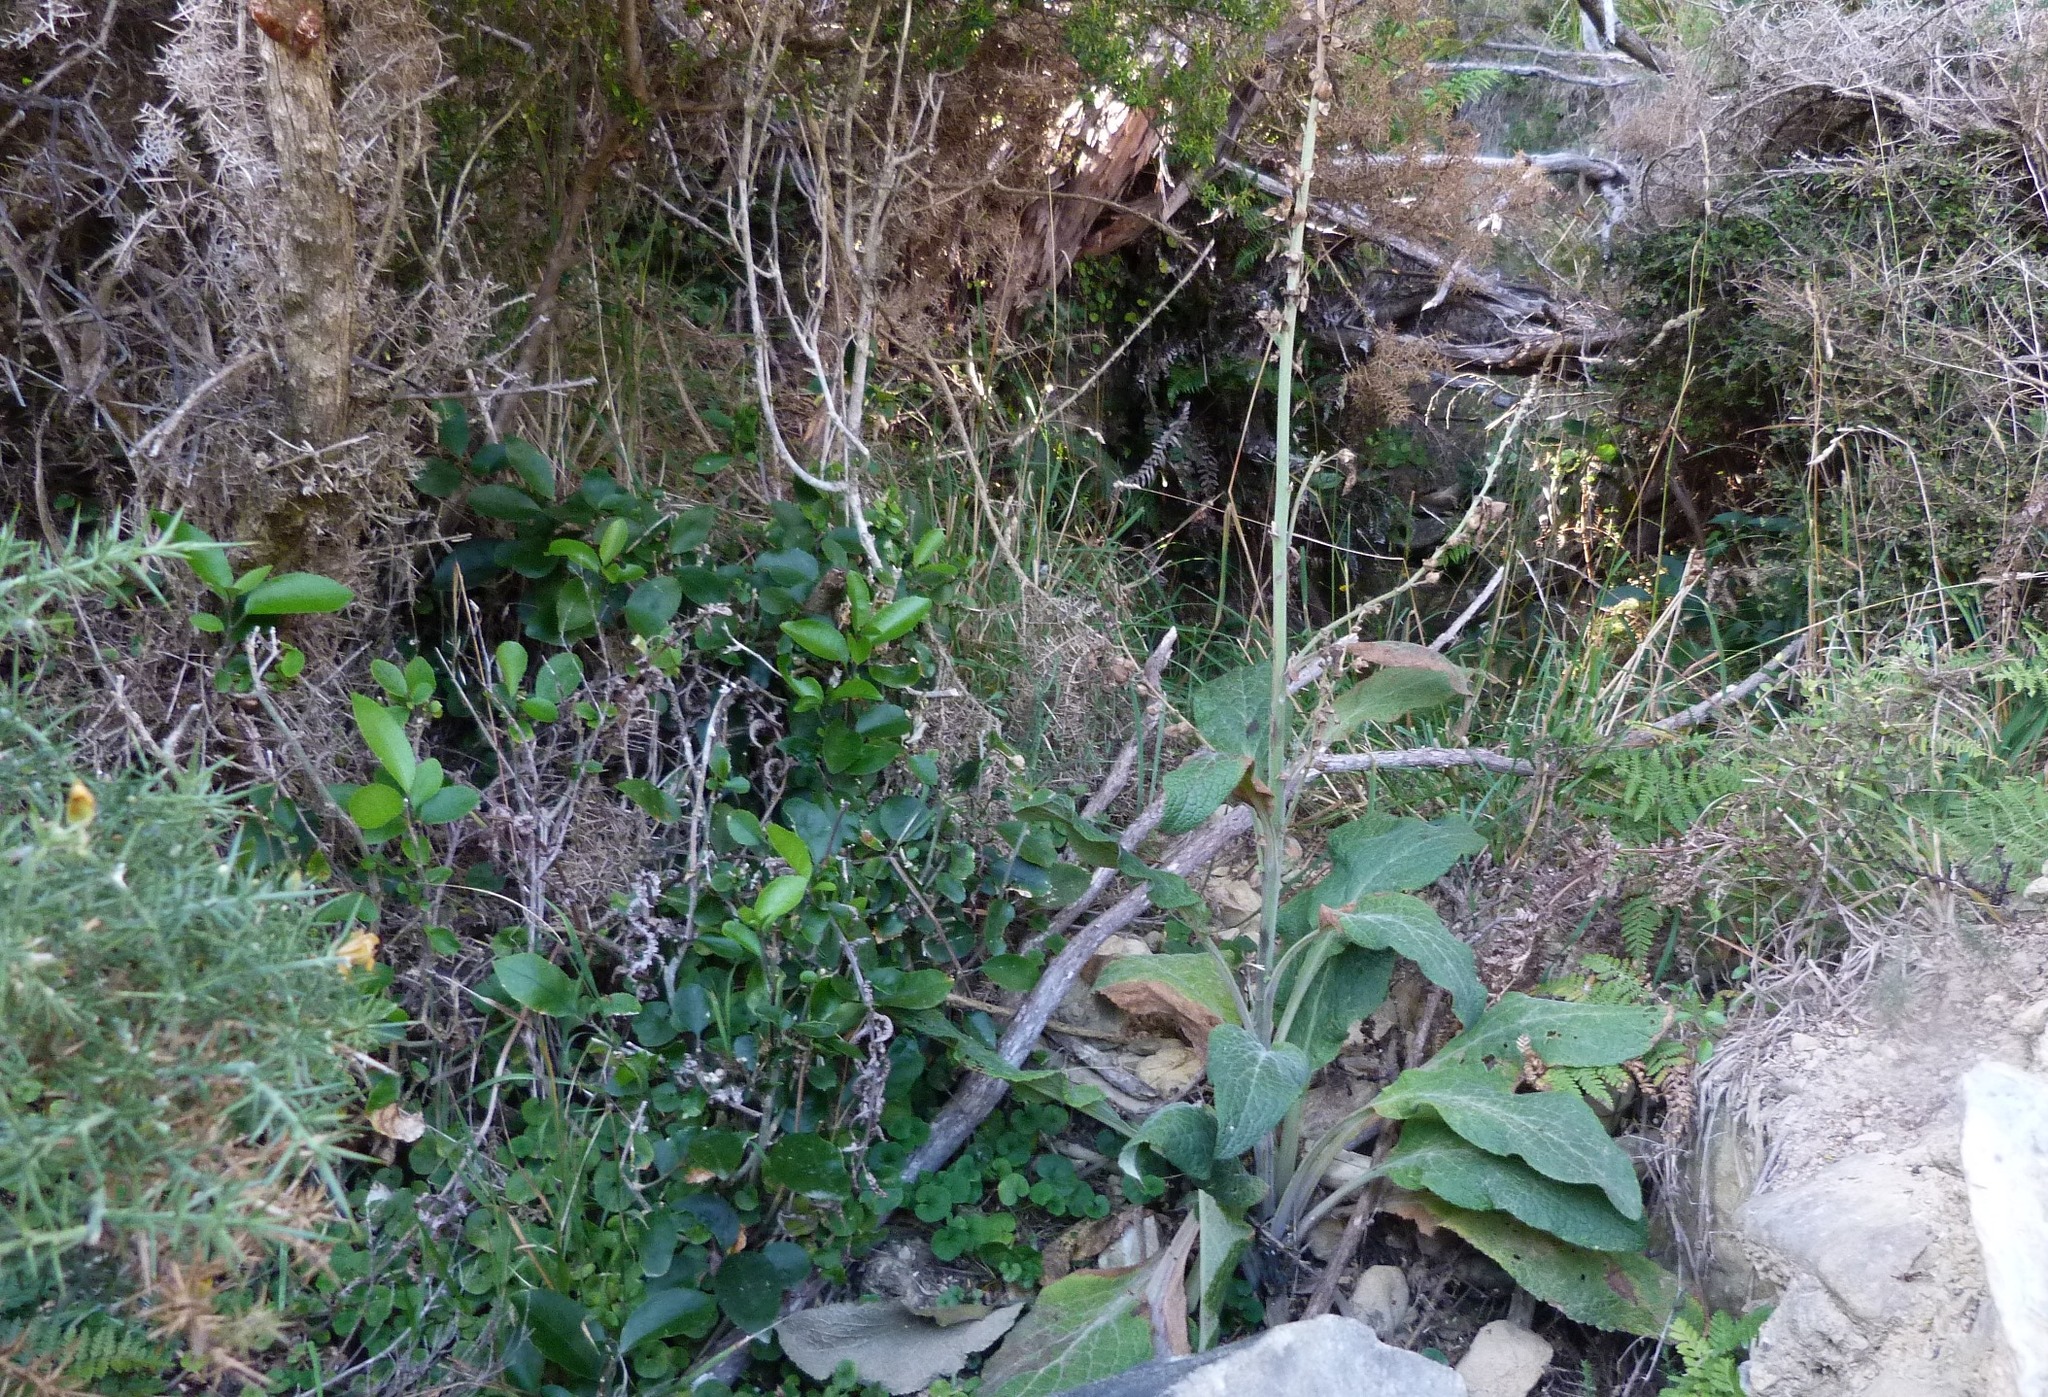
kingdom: Plantae
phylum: Tracheophyta
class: Magnoliopsida
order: Lamiales
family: Plantaginaceae
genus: Digitalis
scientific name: Digitalis purpurea
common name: Foxglove
